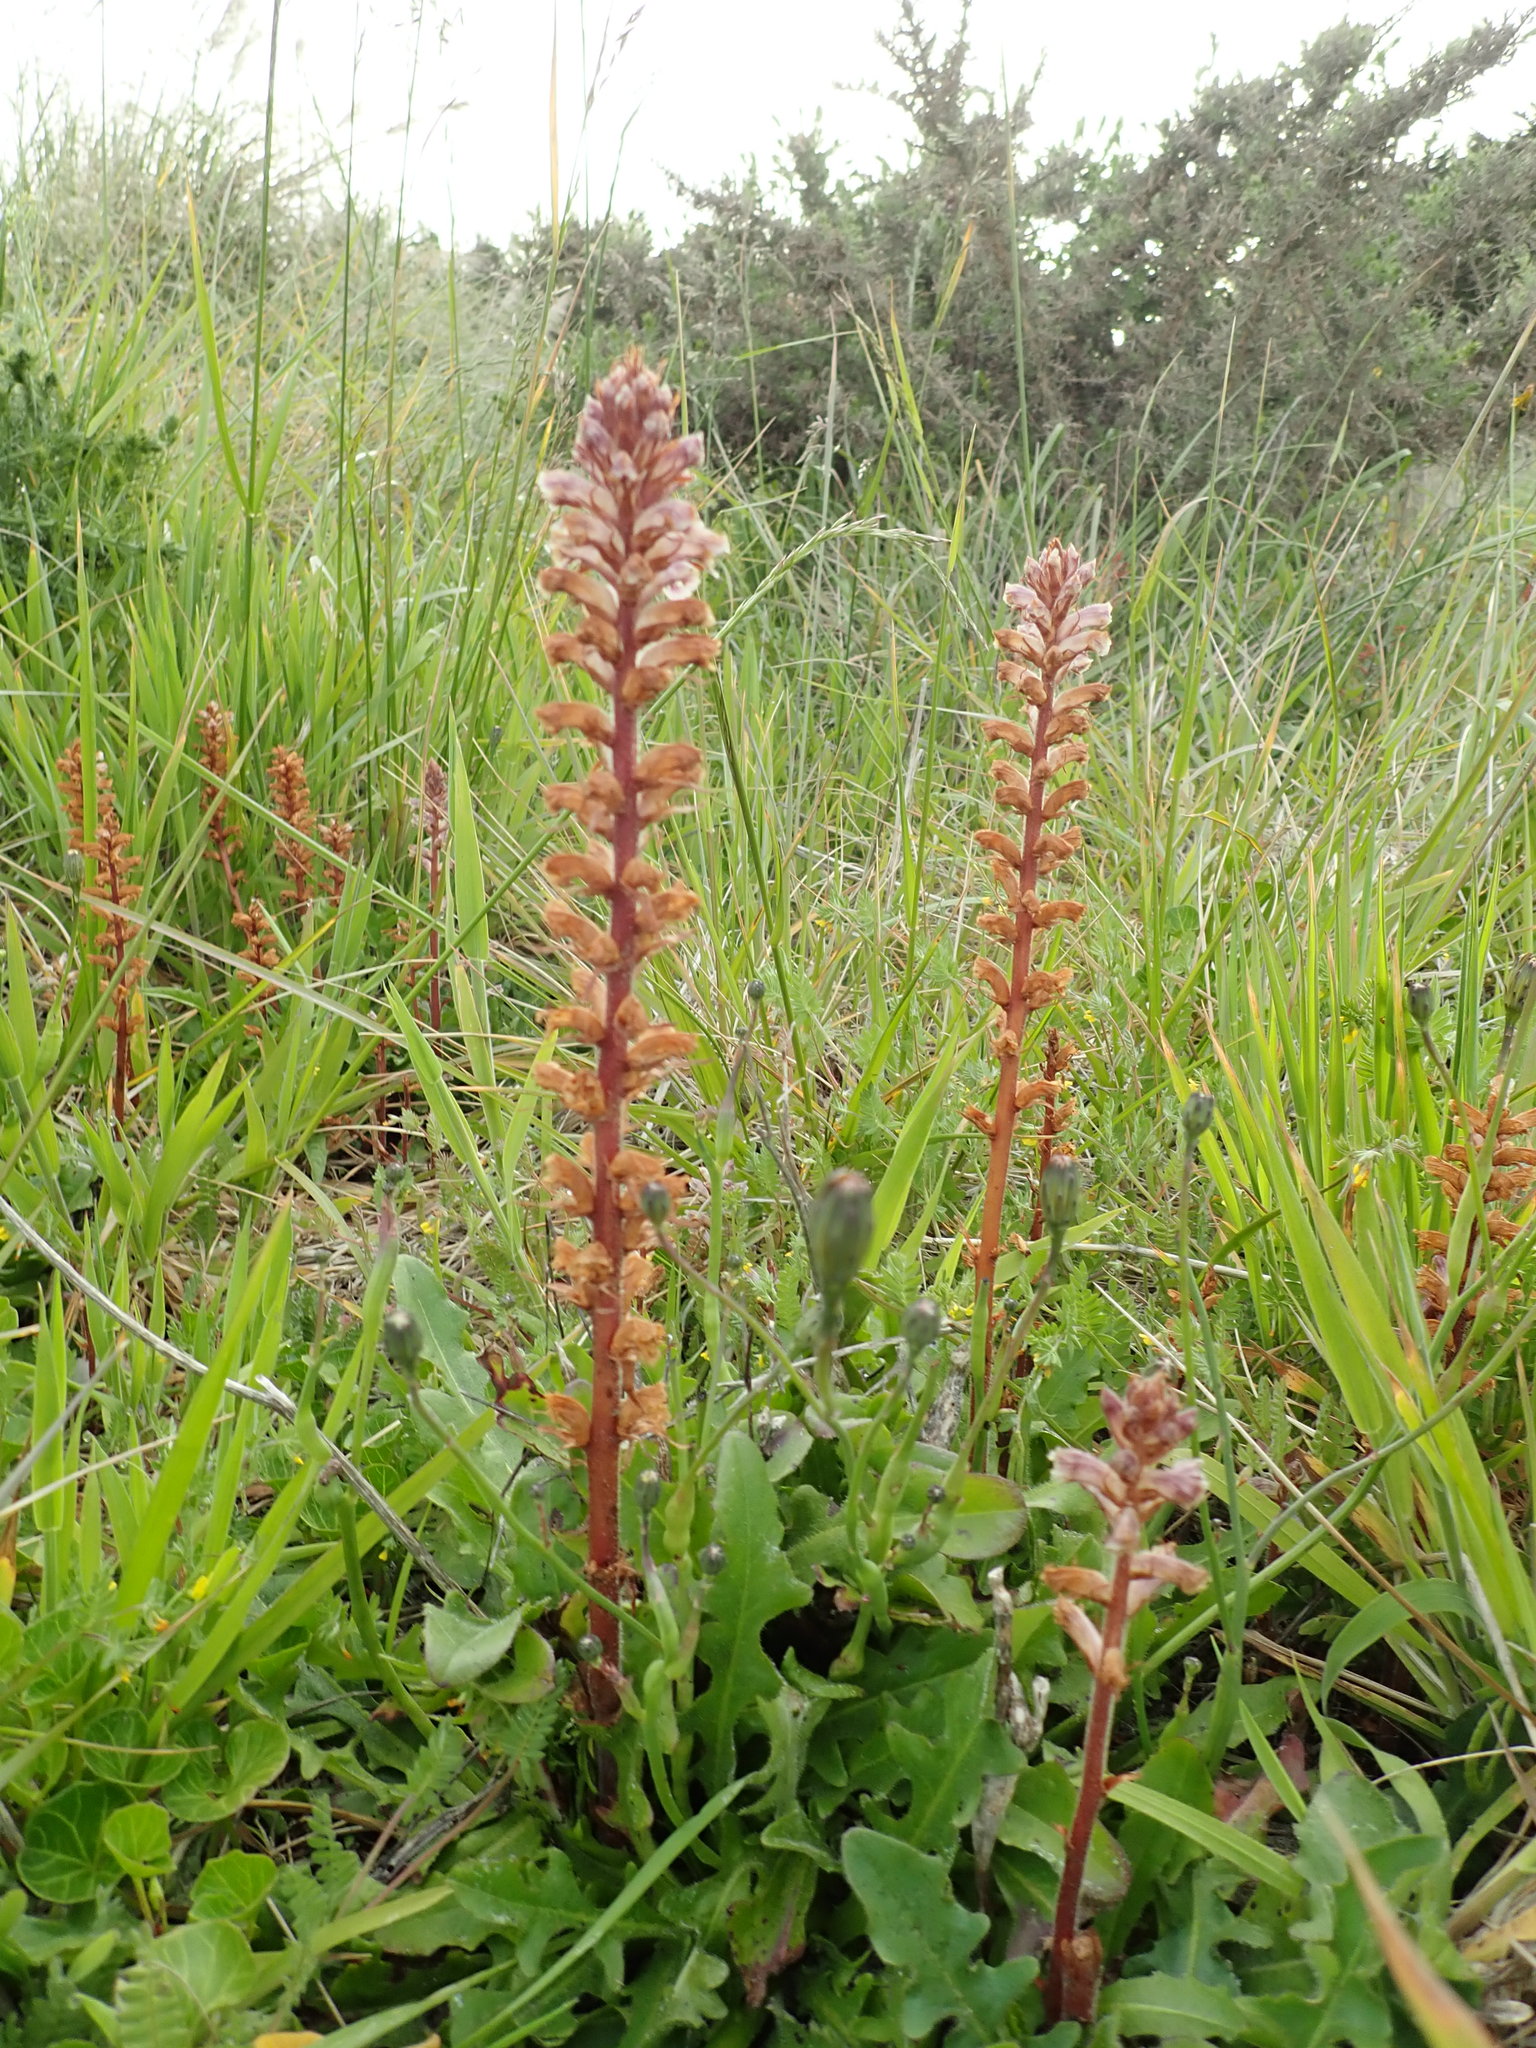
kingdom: Plantae
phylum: Tracheophyta
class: Magnoliopsida
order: Lamiales
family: Orobanchaceae
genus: Orobanche
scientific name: Orobanche minor
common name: Common broomrape
